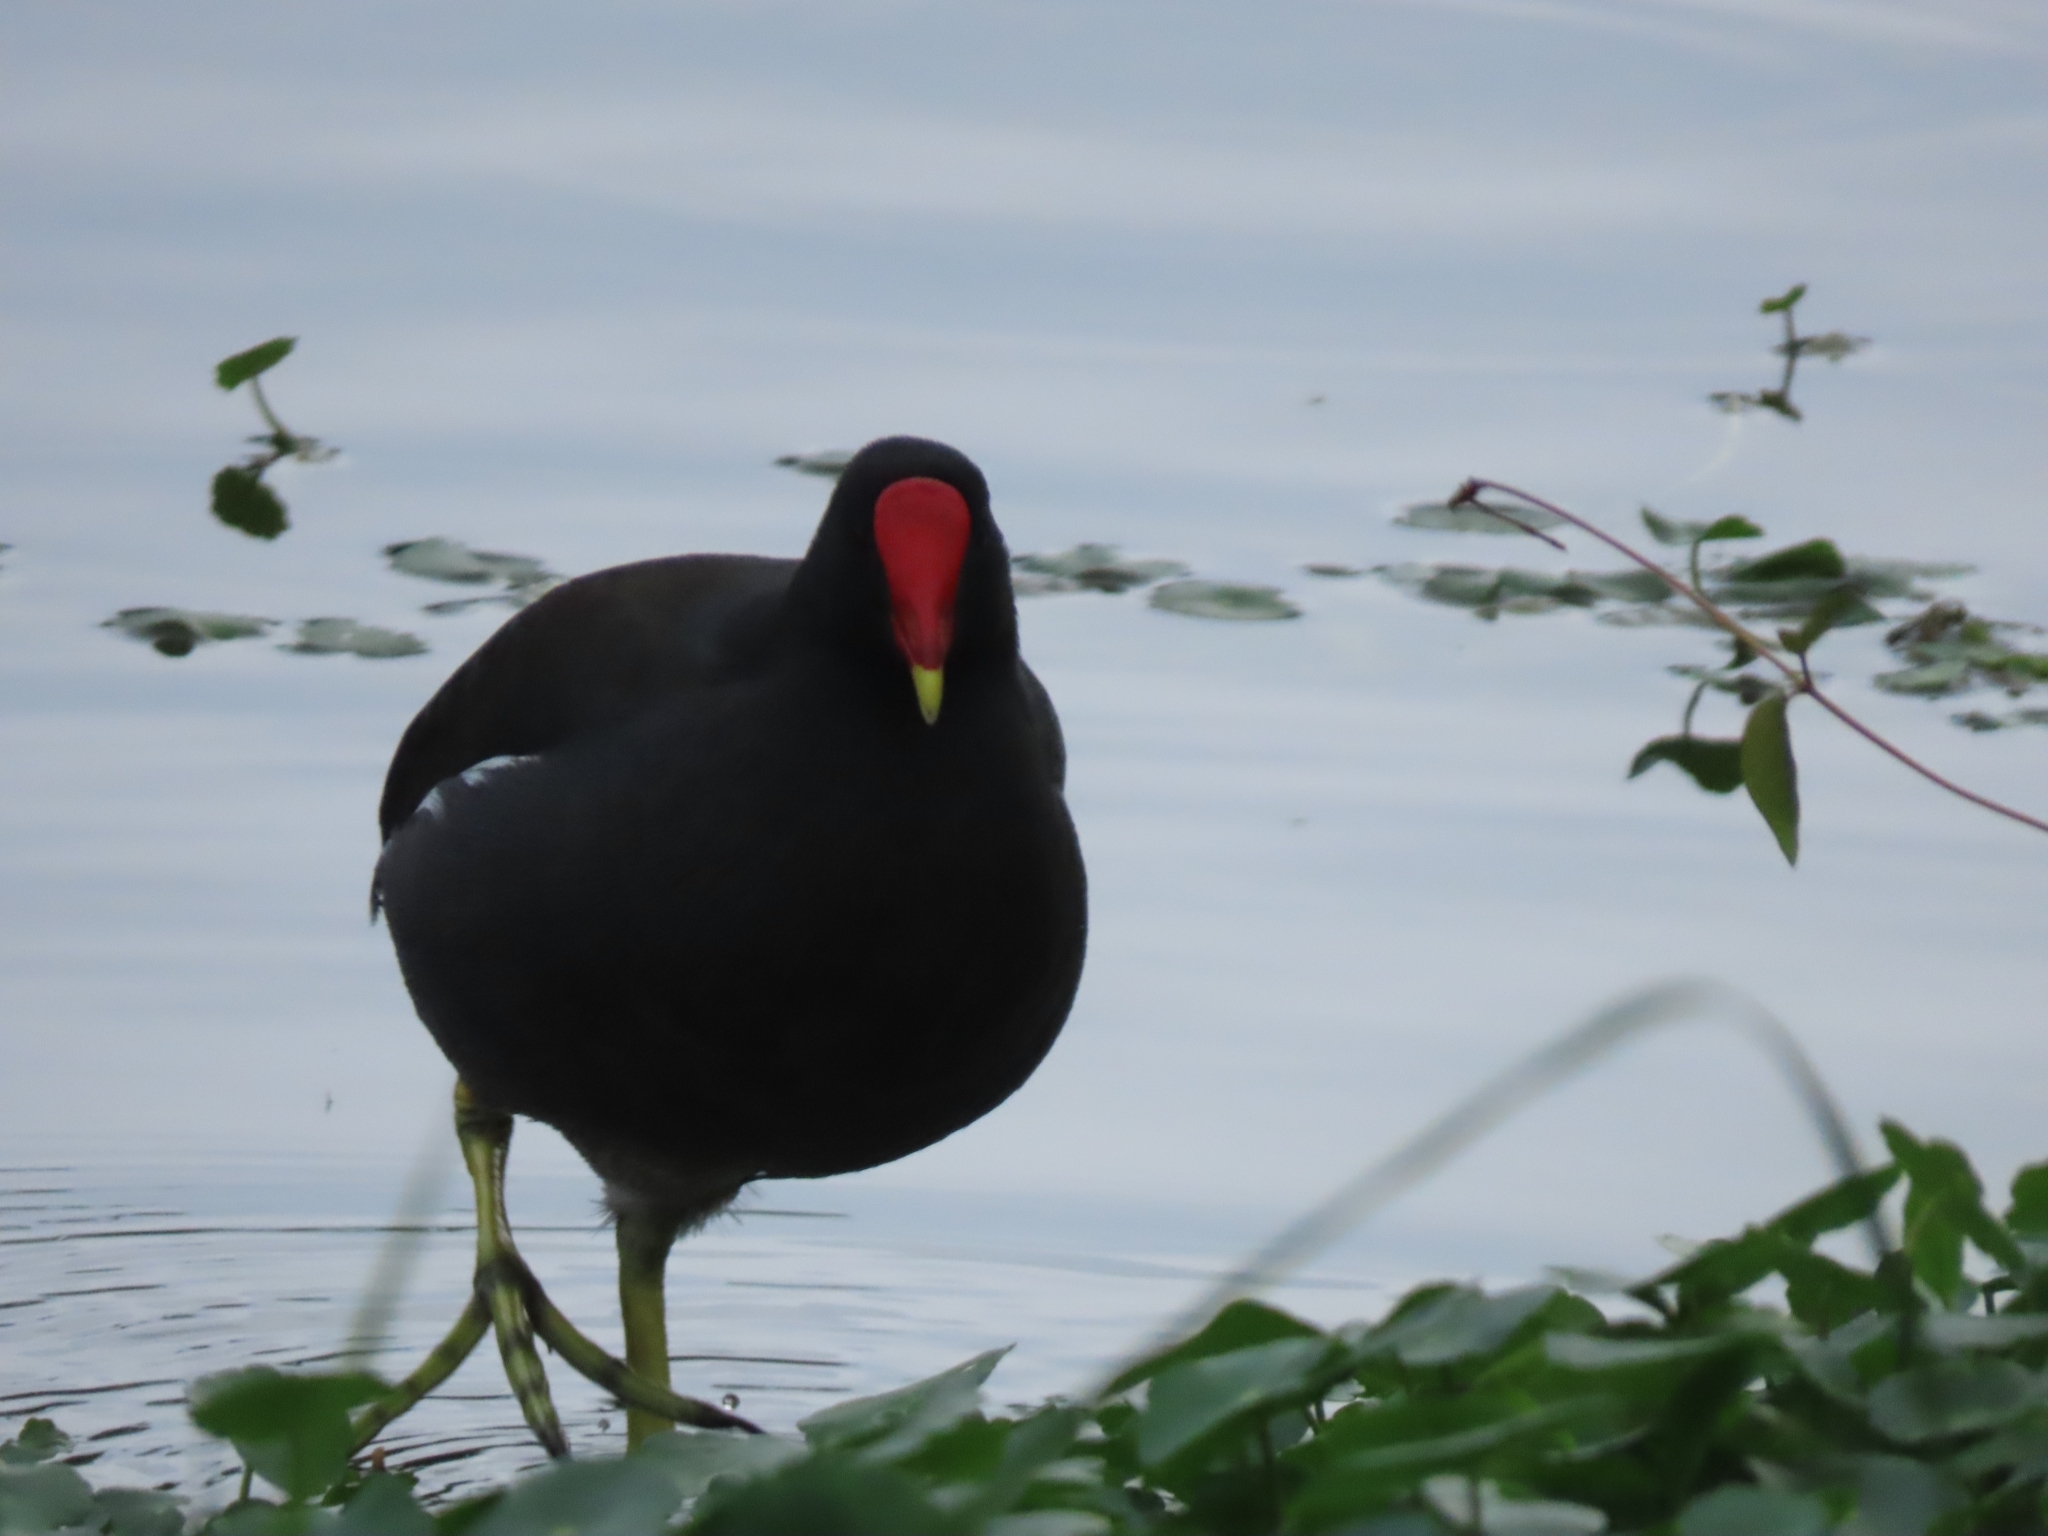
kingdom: Animalia
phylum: Chordata
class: Aves
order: Gruiformes
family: Rallidae
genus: Gallinula
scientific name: Gallinula chloropus
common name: Common moorhen
